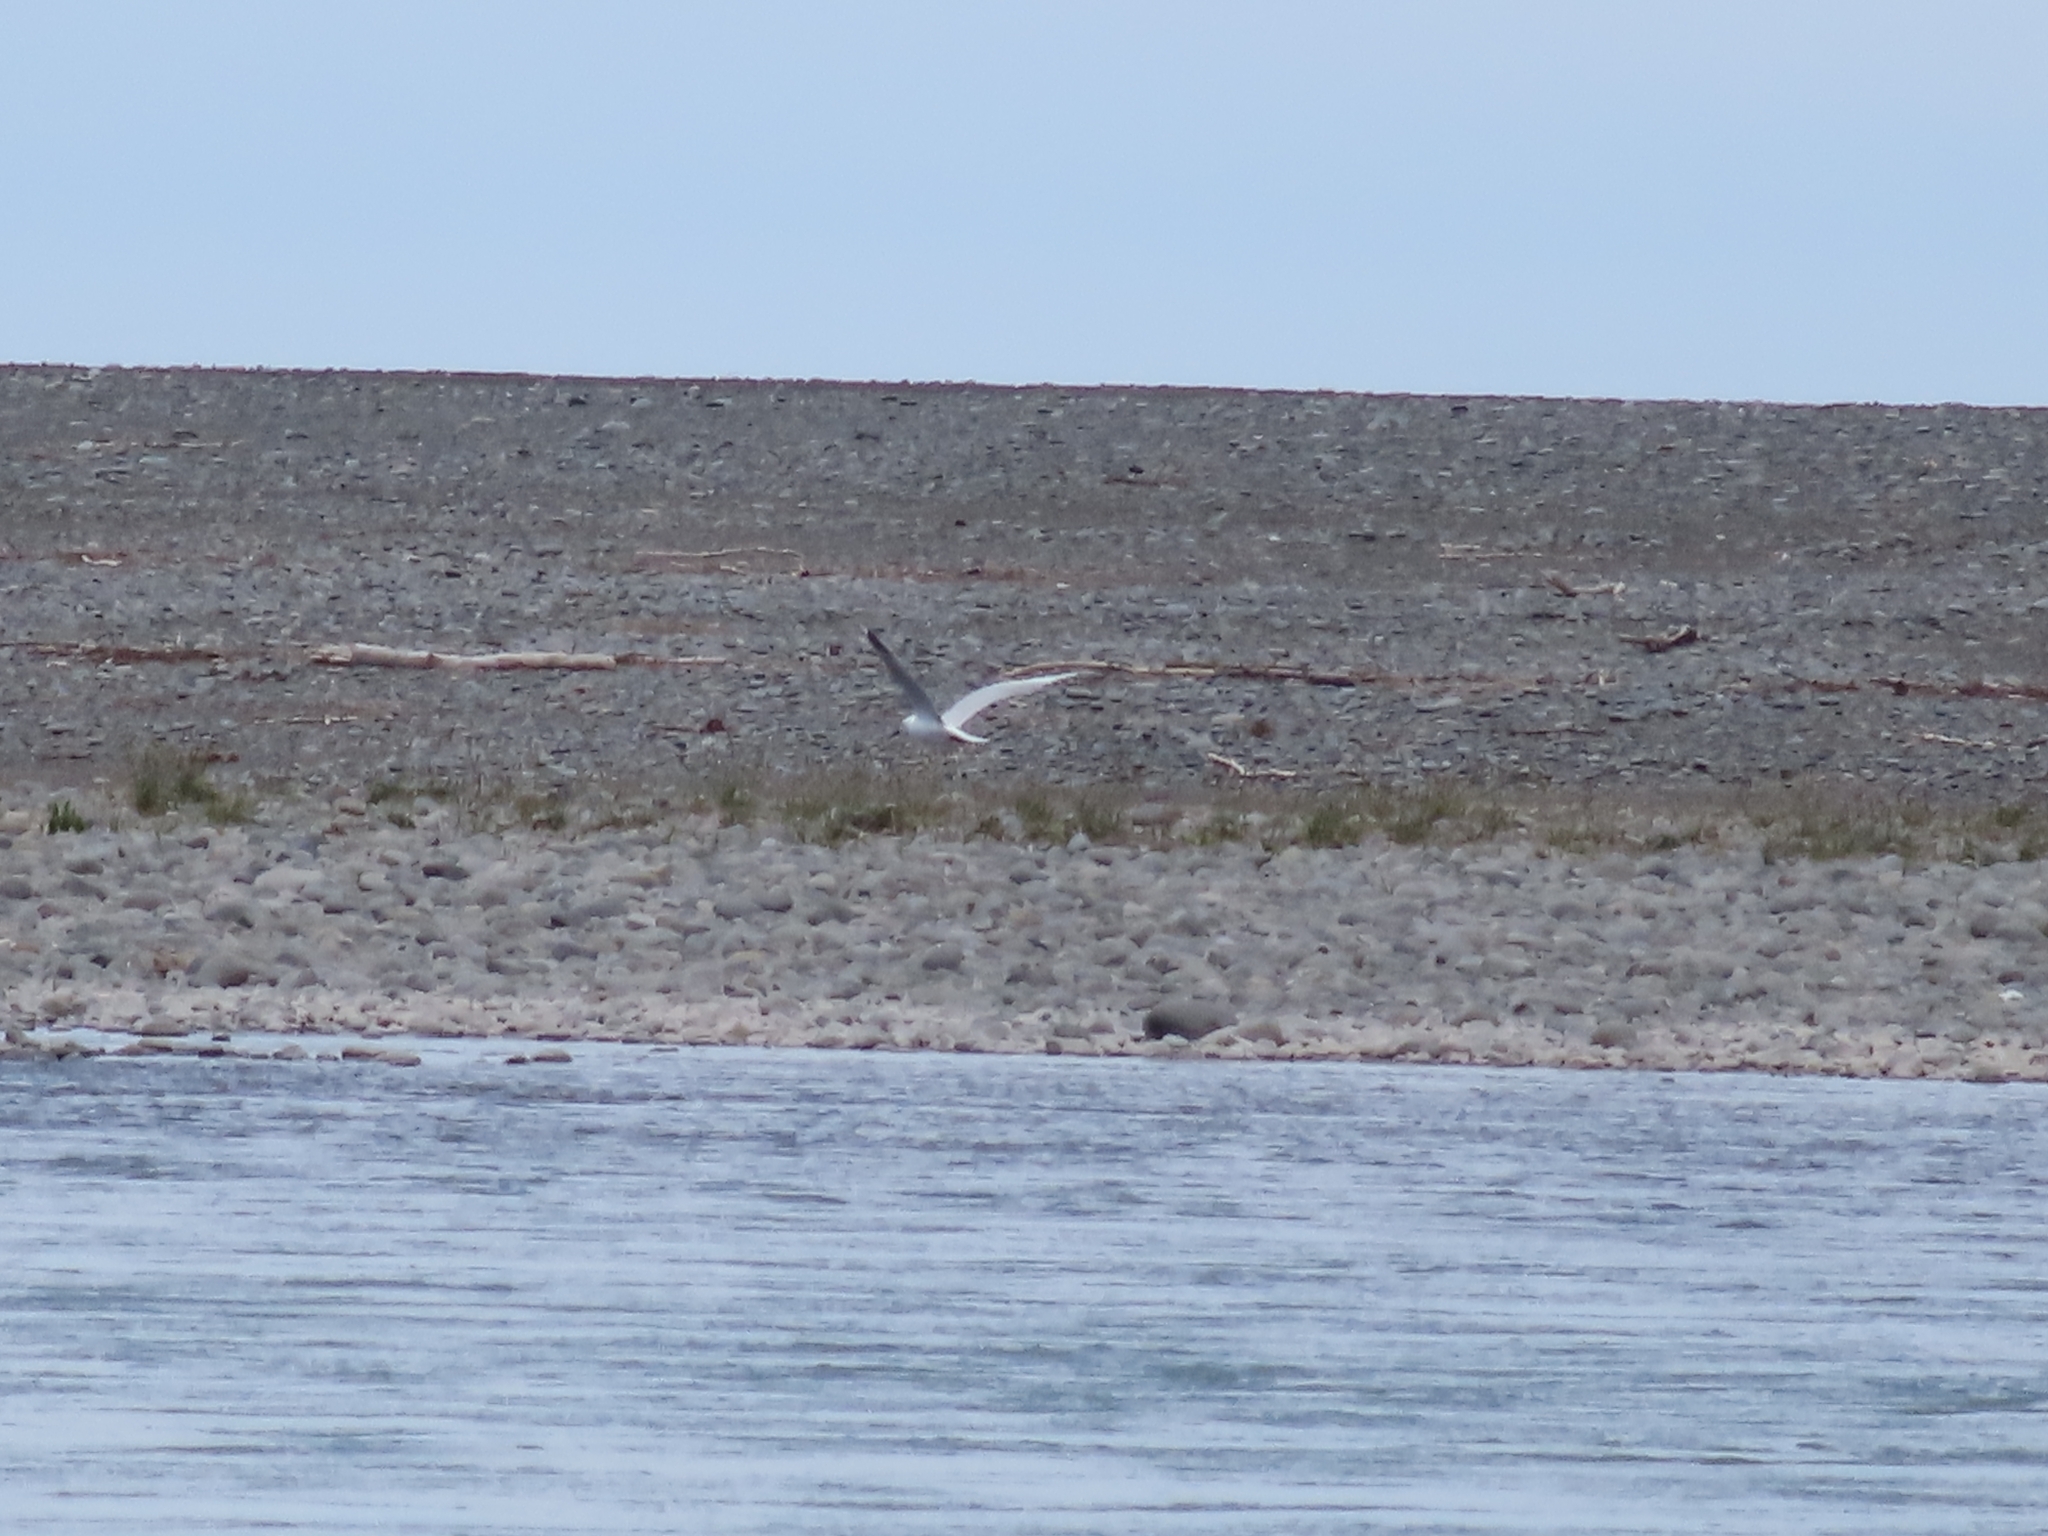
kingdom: Animalia
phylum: Chordata
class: Aves
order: Charadriiformes
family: Laridae
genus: Chroicocephalus
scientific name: Chroicocephalus bulleri
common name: Black-billed gull
